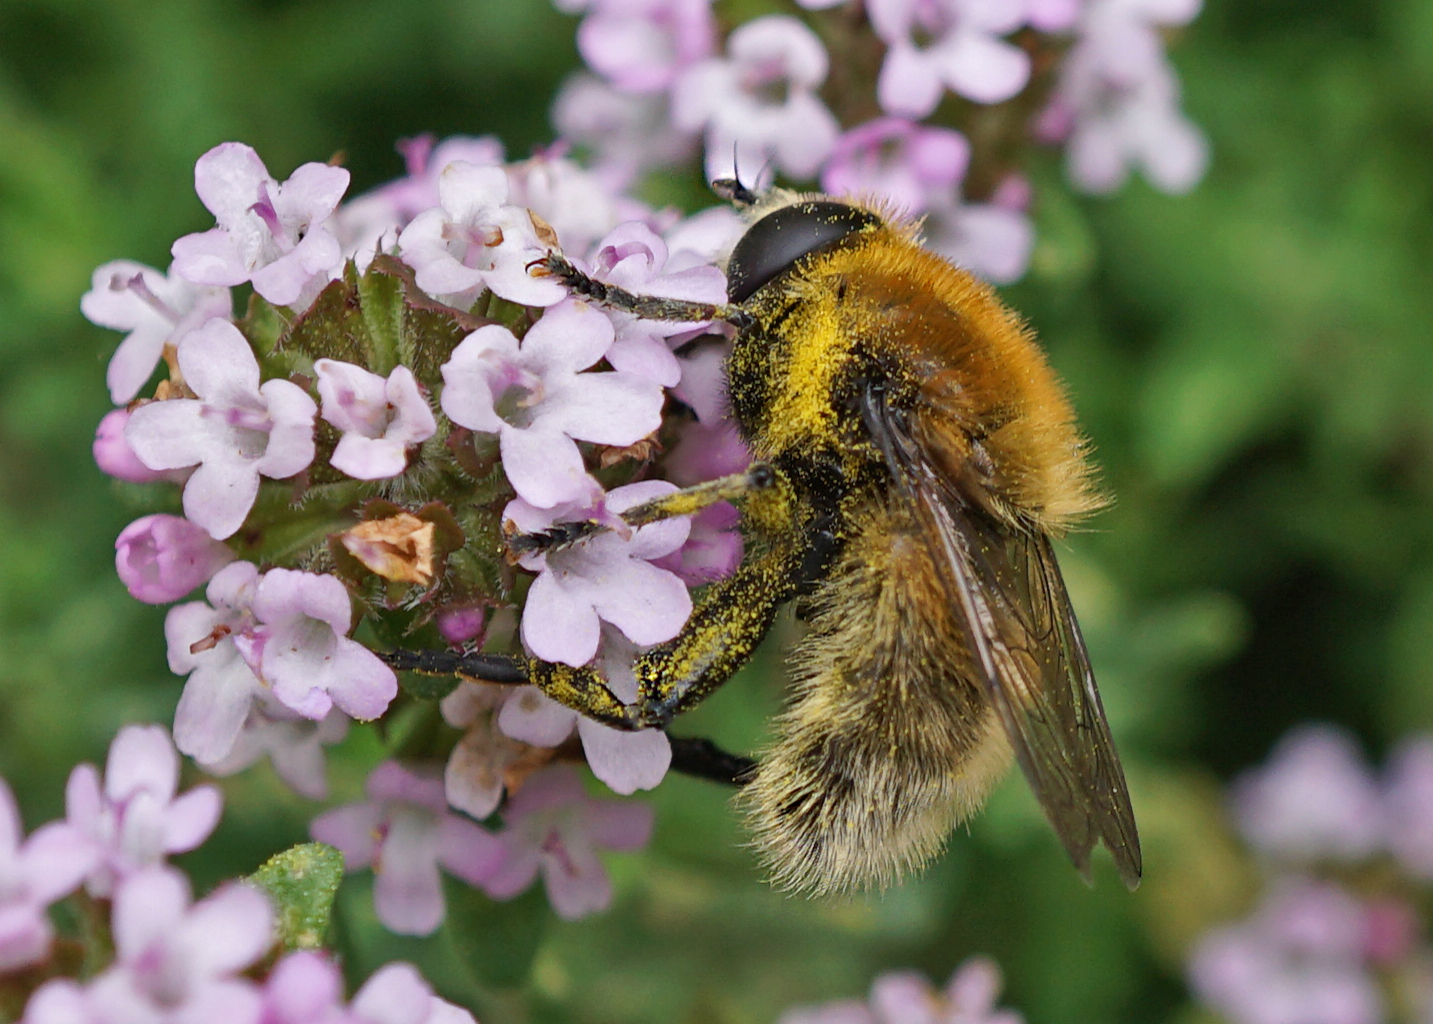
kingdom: Animalia
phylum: Arthropoda
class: Insecta
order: Diptera
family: Syrphidae
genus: Merodon
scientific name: Merodon equestris
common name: Greater bulb-fly
